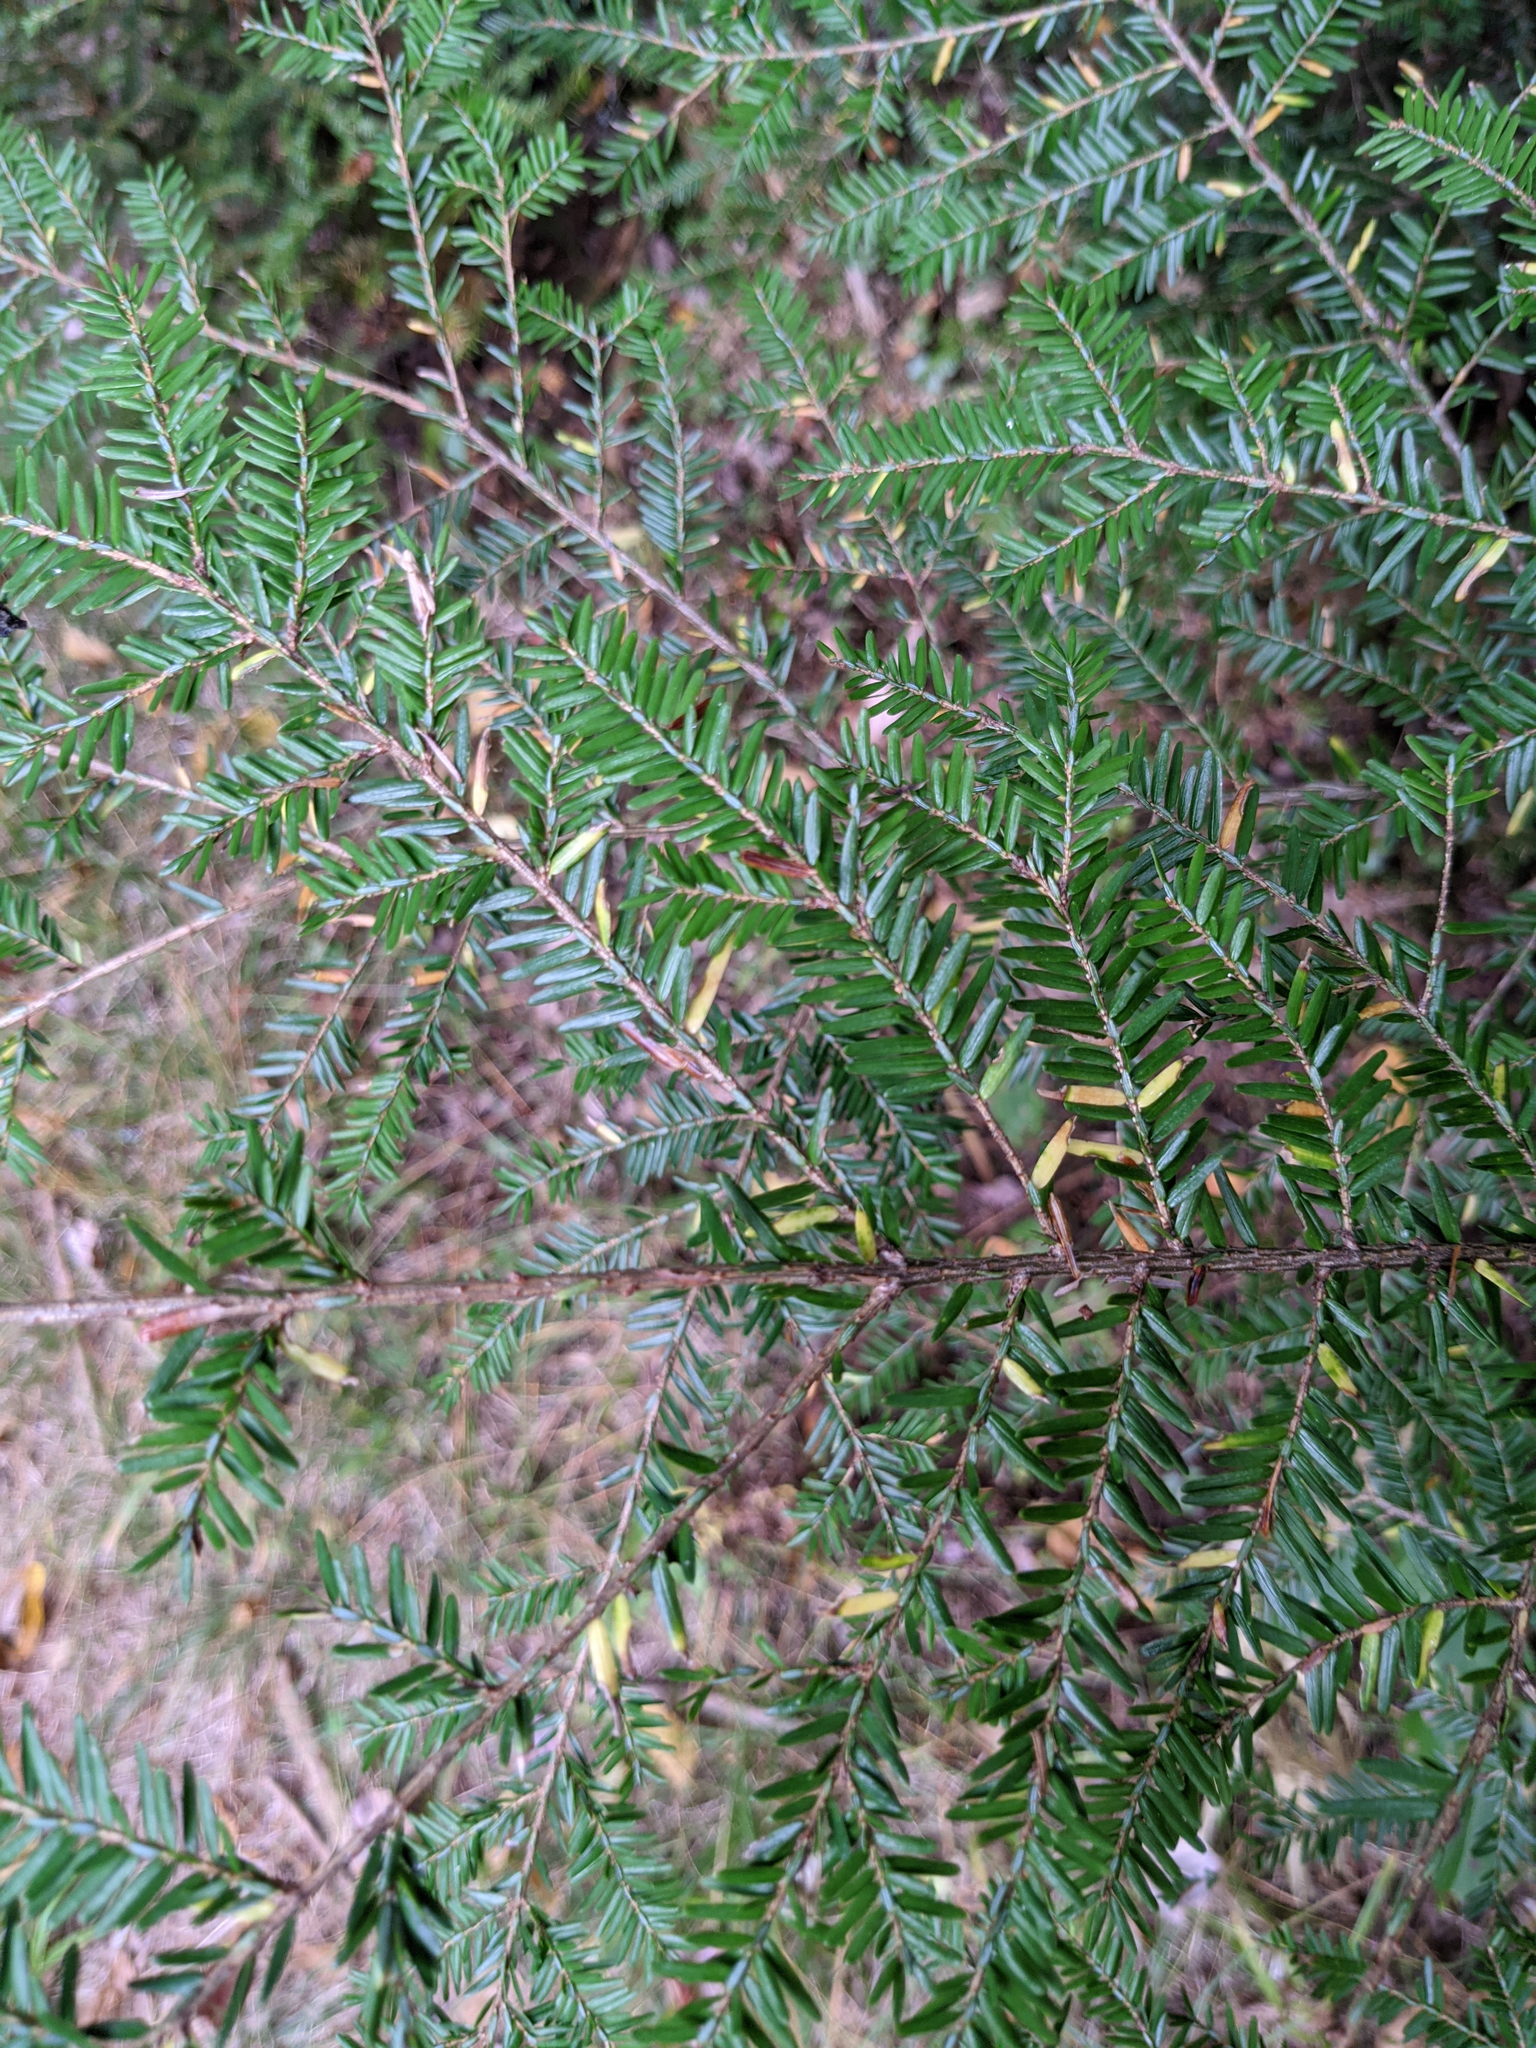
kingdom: Plantae
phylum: Tracheophyta
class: Pinopsida
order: Pinales
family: Pinaceae
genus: Tsuga
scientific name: Tsuga canadensis
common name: Eastern hemlock
